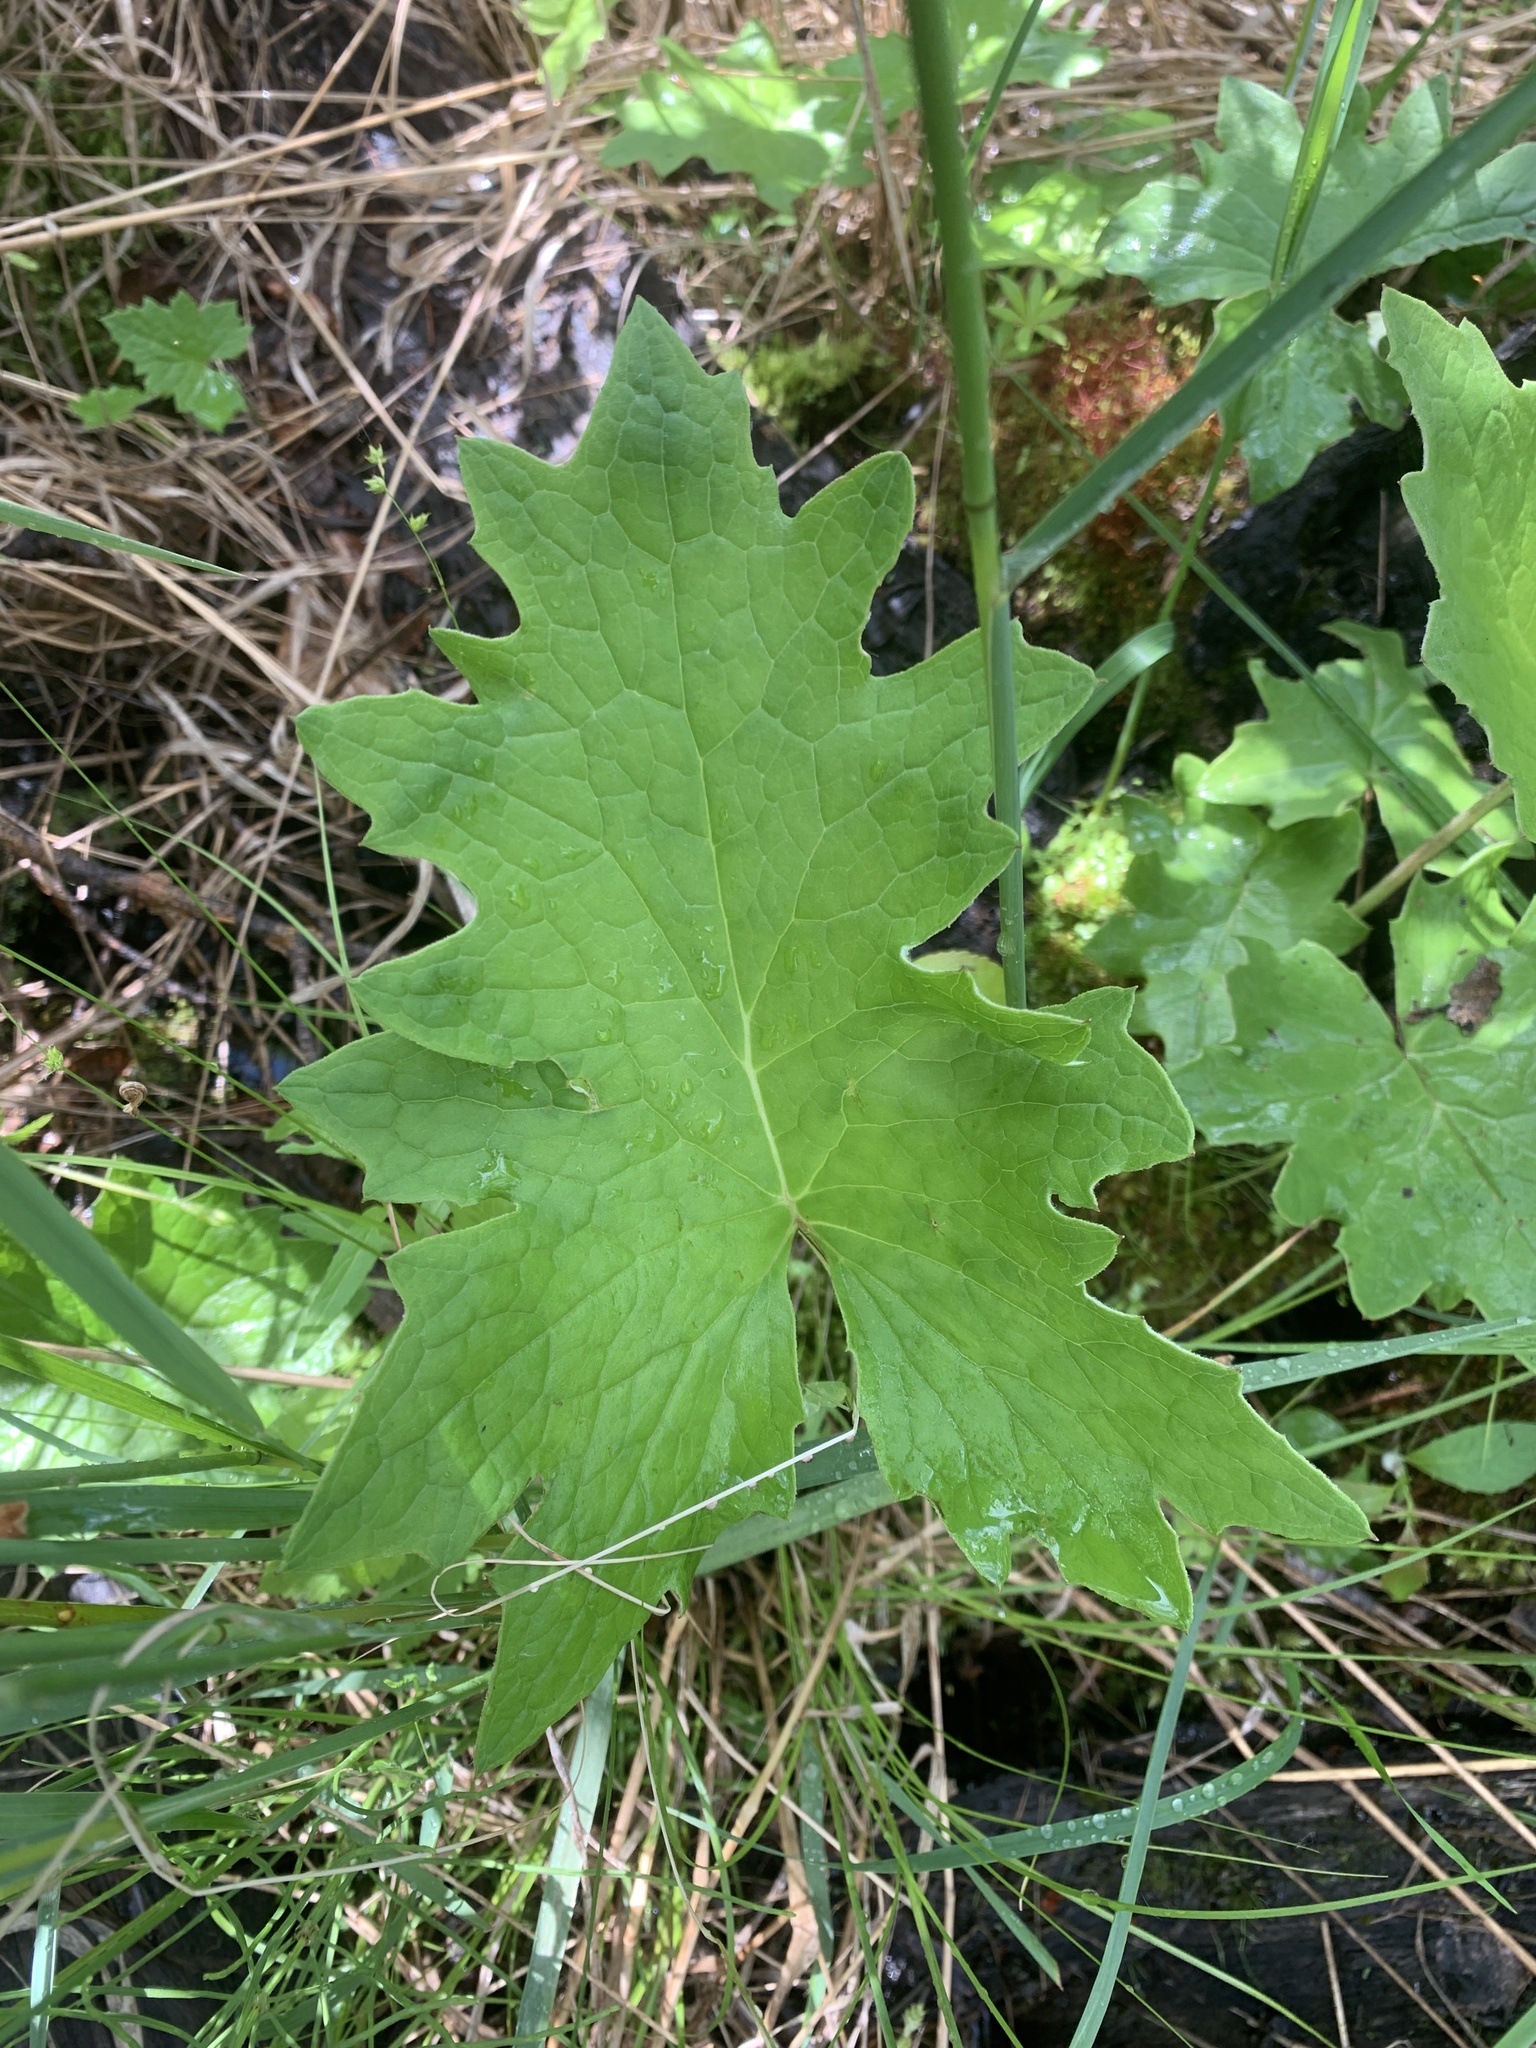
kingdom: Plantae
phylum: Tracheophyta
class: Magnoliopsida
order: Asterales
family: Asteraceae
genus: Petasites
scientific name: Petasites frigidus
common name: Arctic butterbur
